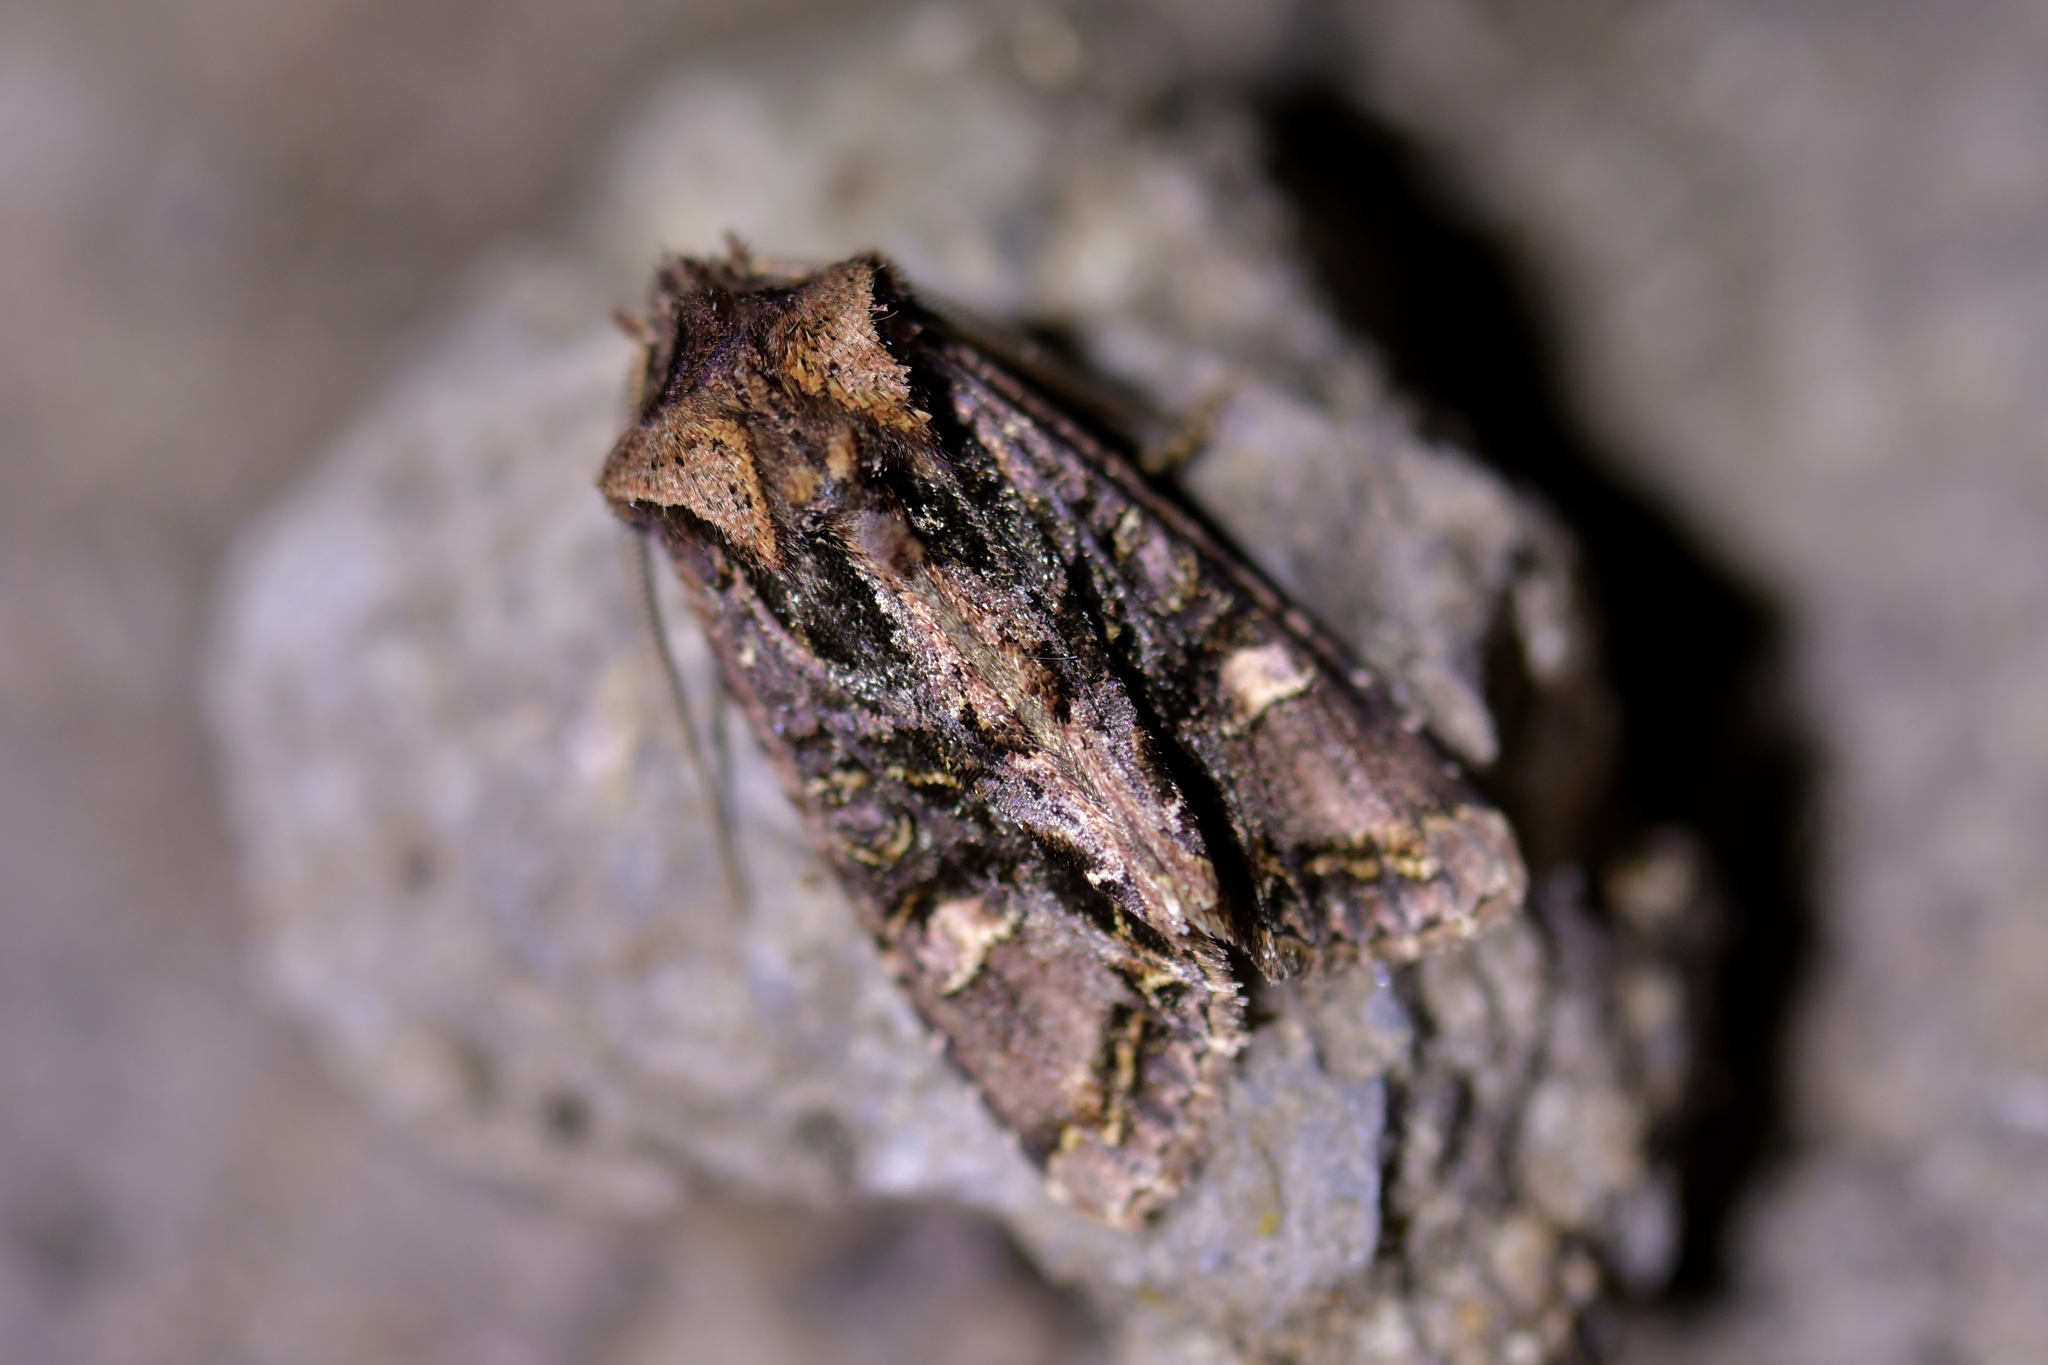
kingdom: Animalia
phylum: Arthropoda
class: Insecta
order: Lepidoptera
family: Noctuidae
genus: Ichneutica
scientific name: Ichneutica insignis
